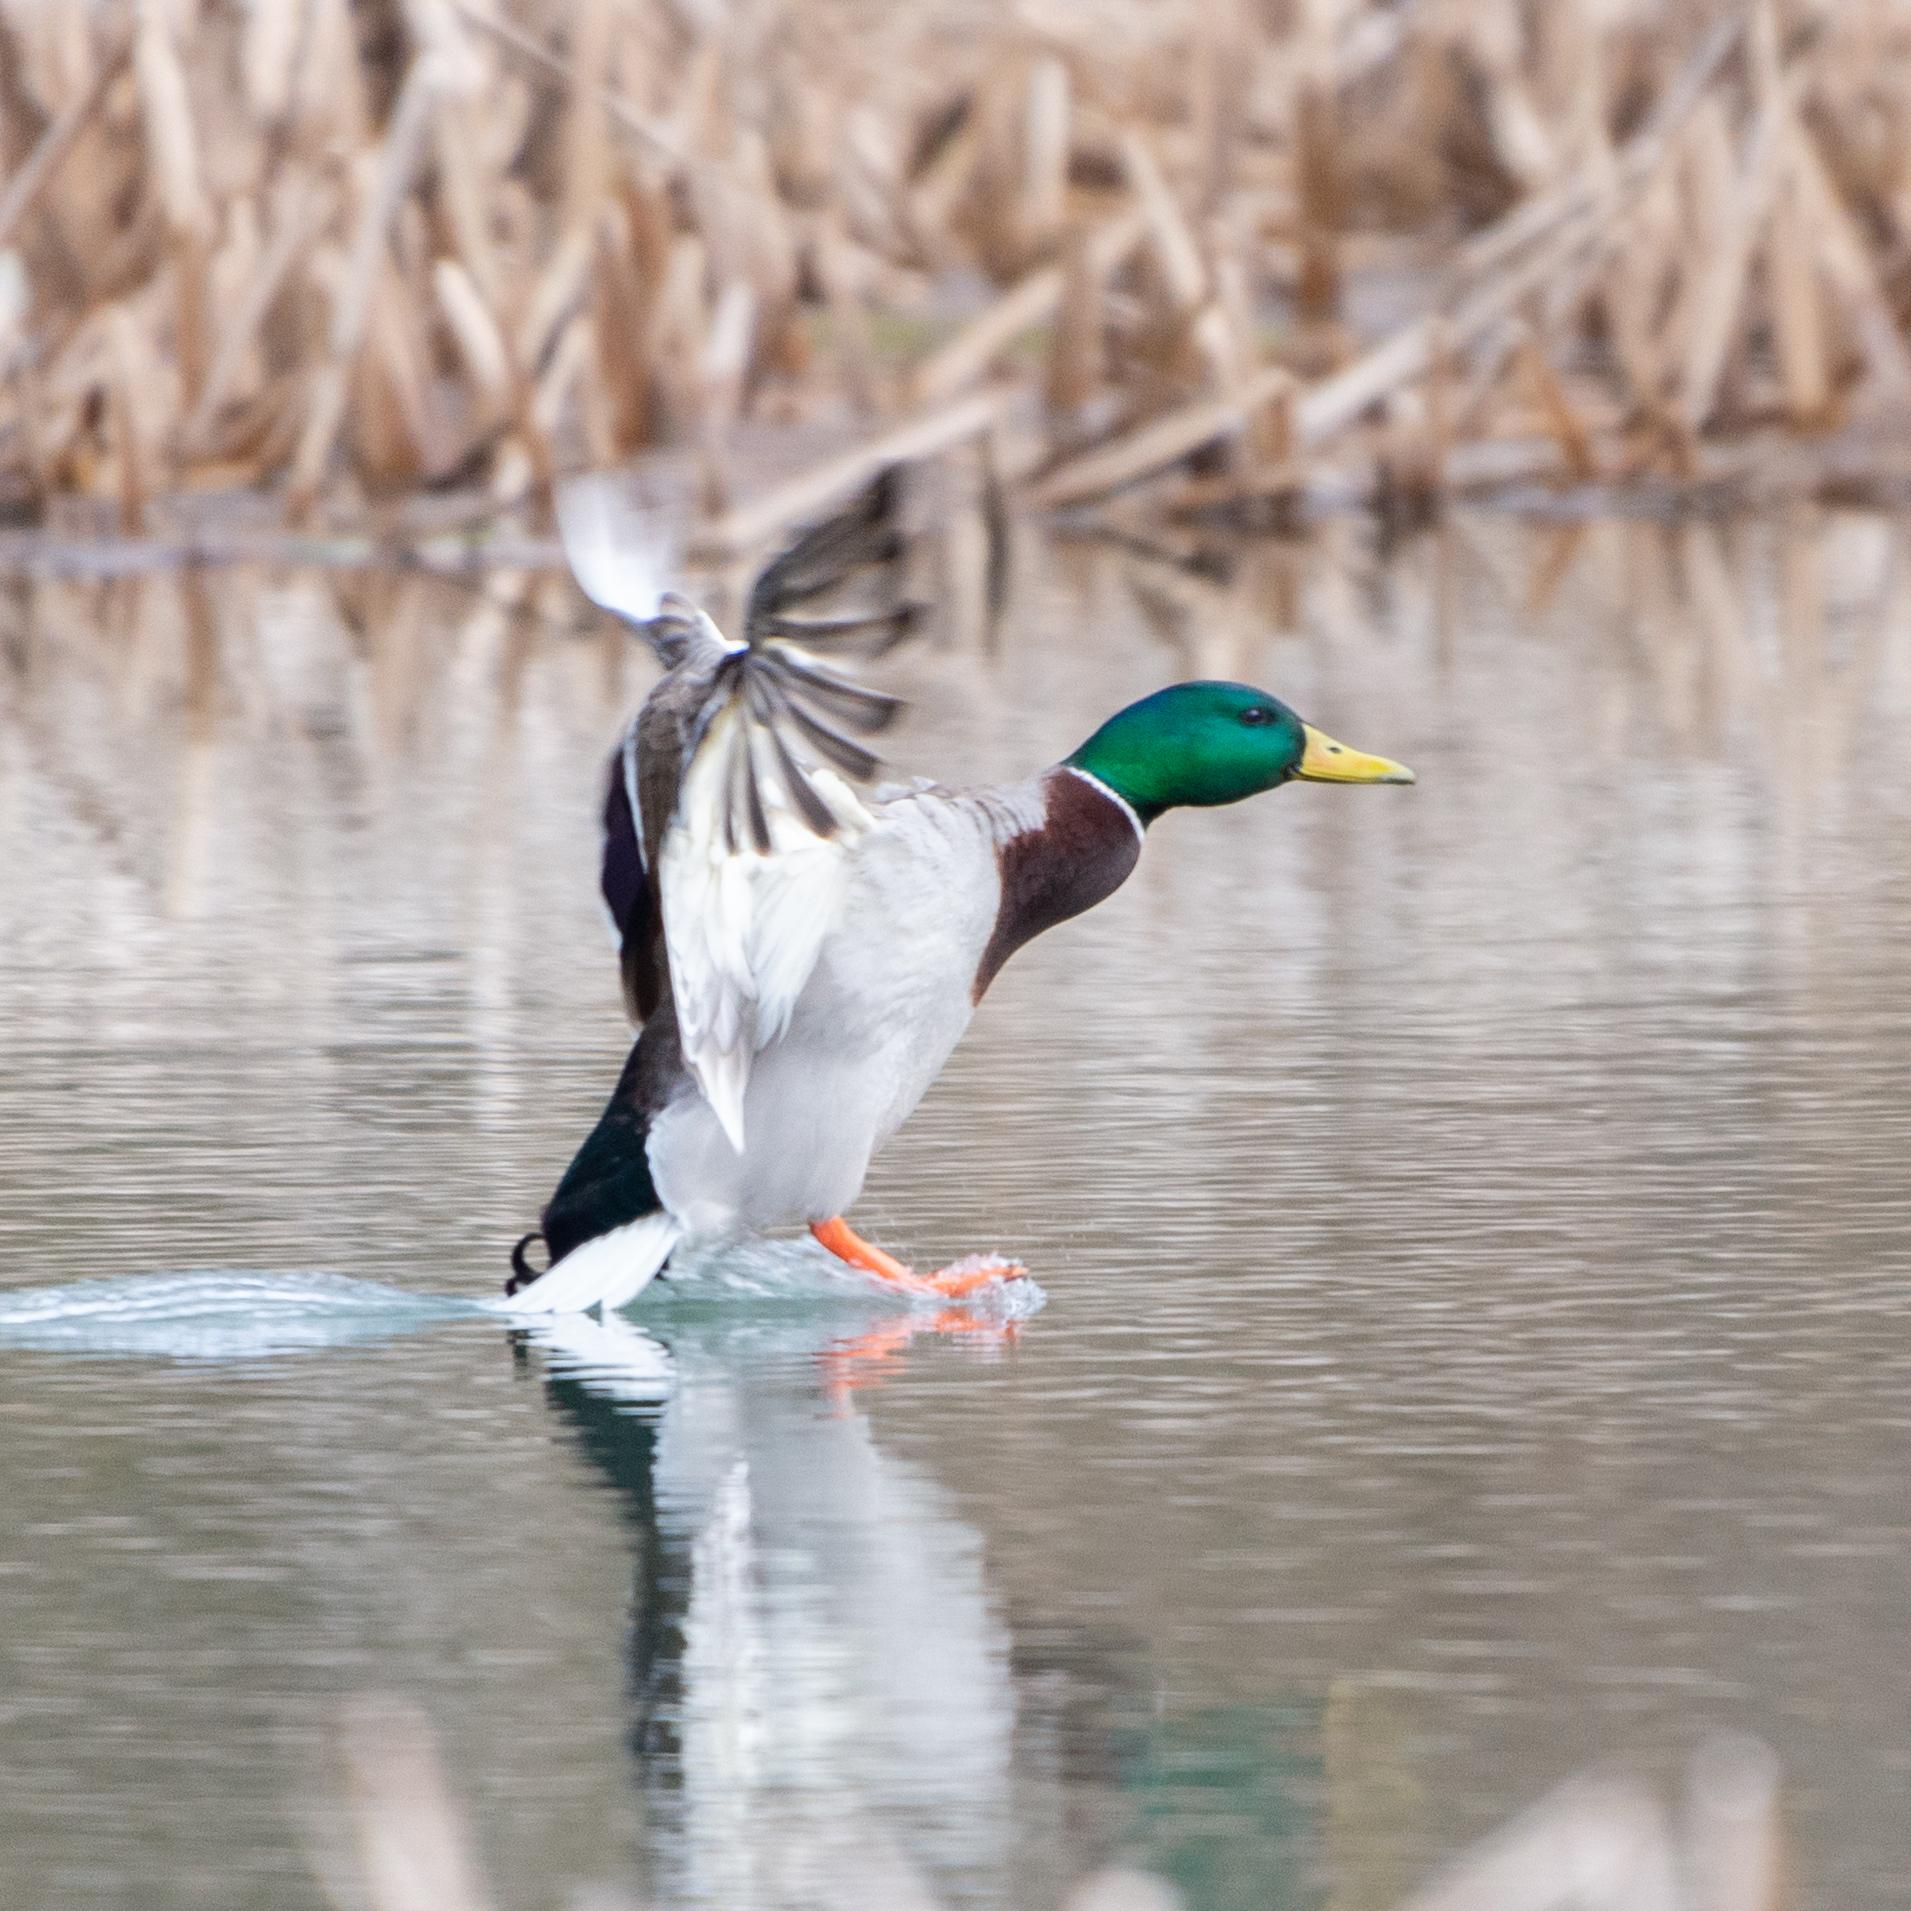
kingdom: Animalia
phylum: Chordata
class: Aves
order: Anseriformes
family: Anatidae
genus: Anas
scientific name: Anas platyrhynchos
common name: Mallard
